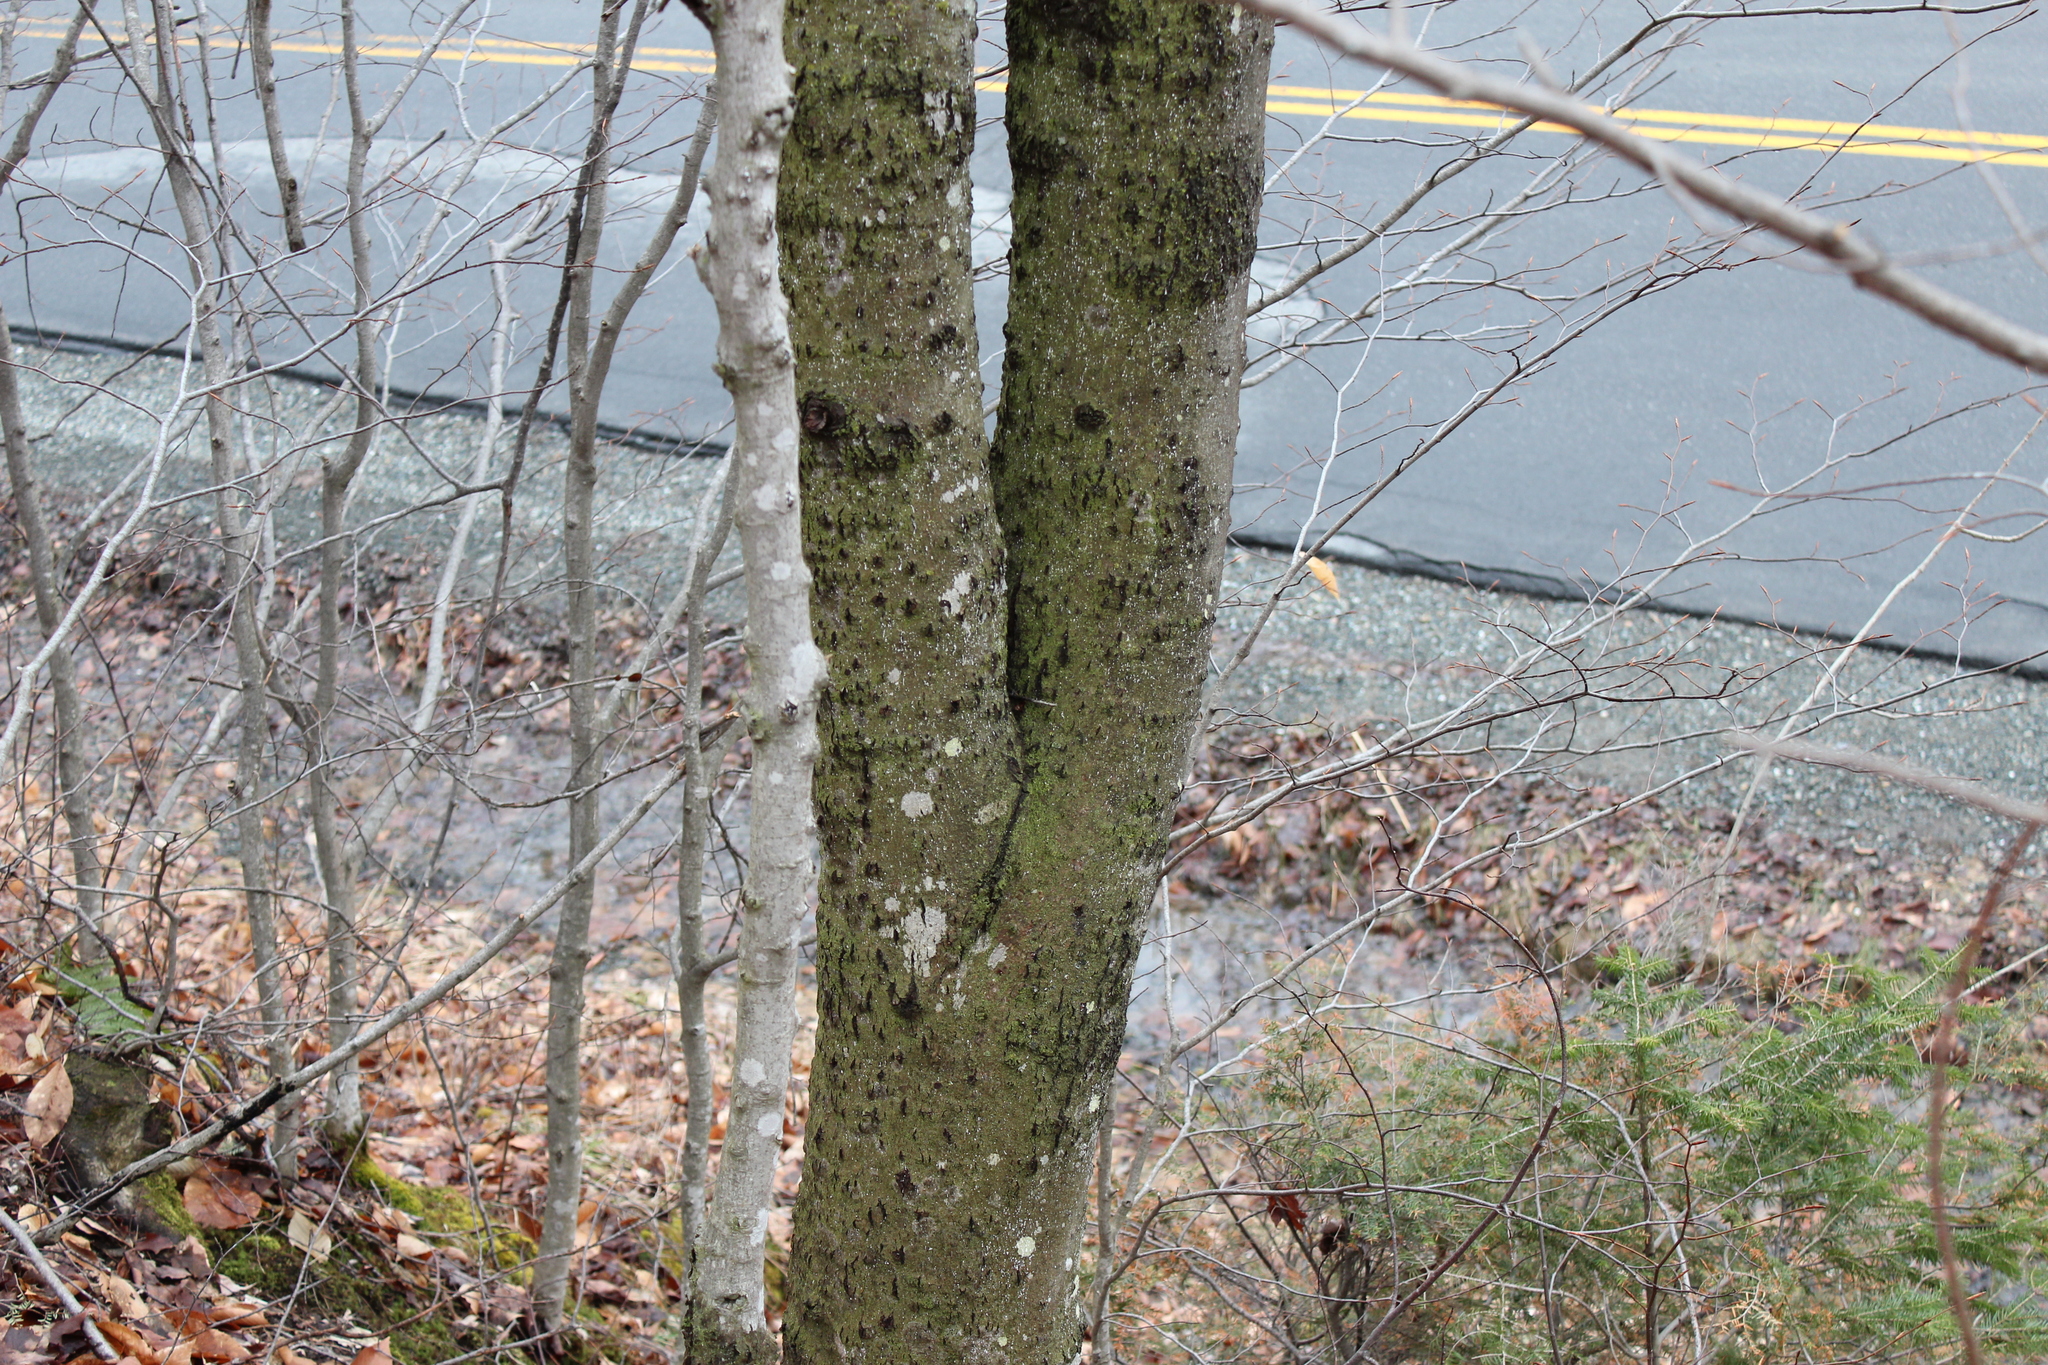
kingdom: Plantae
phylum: Tracheophyta
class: Magnoliopsida
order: Fagales
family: Fagaceae
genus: Fagus
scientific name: Fagus grandifolia
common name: American beech
